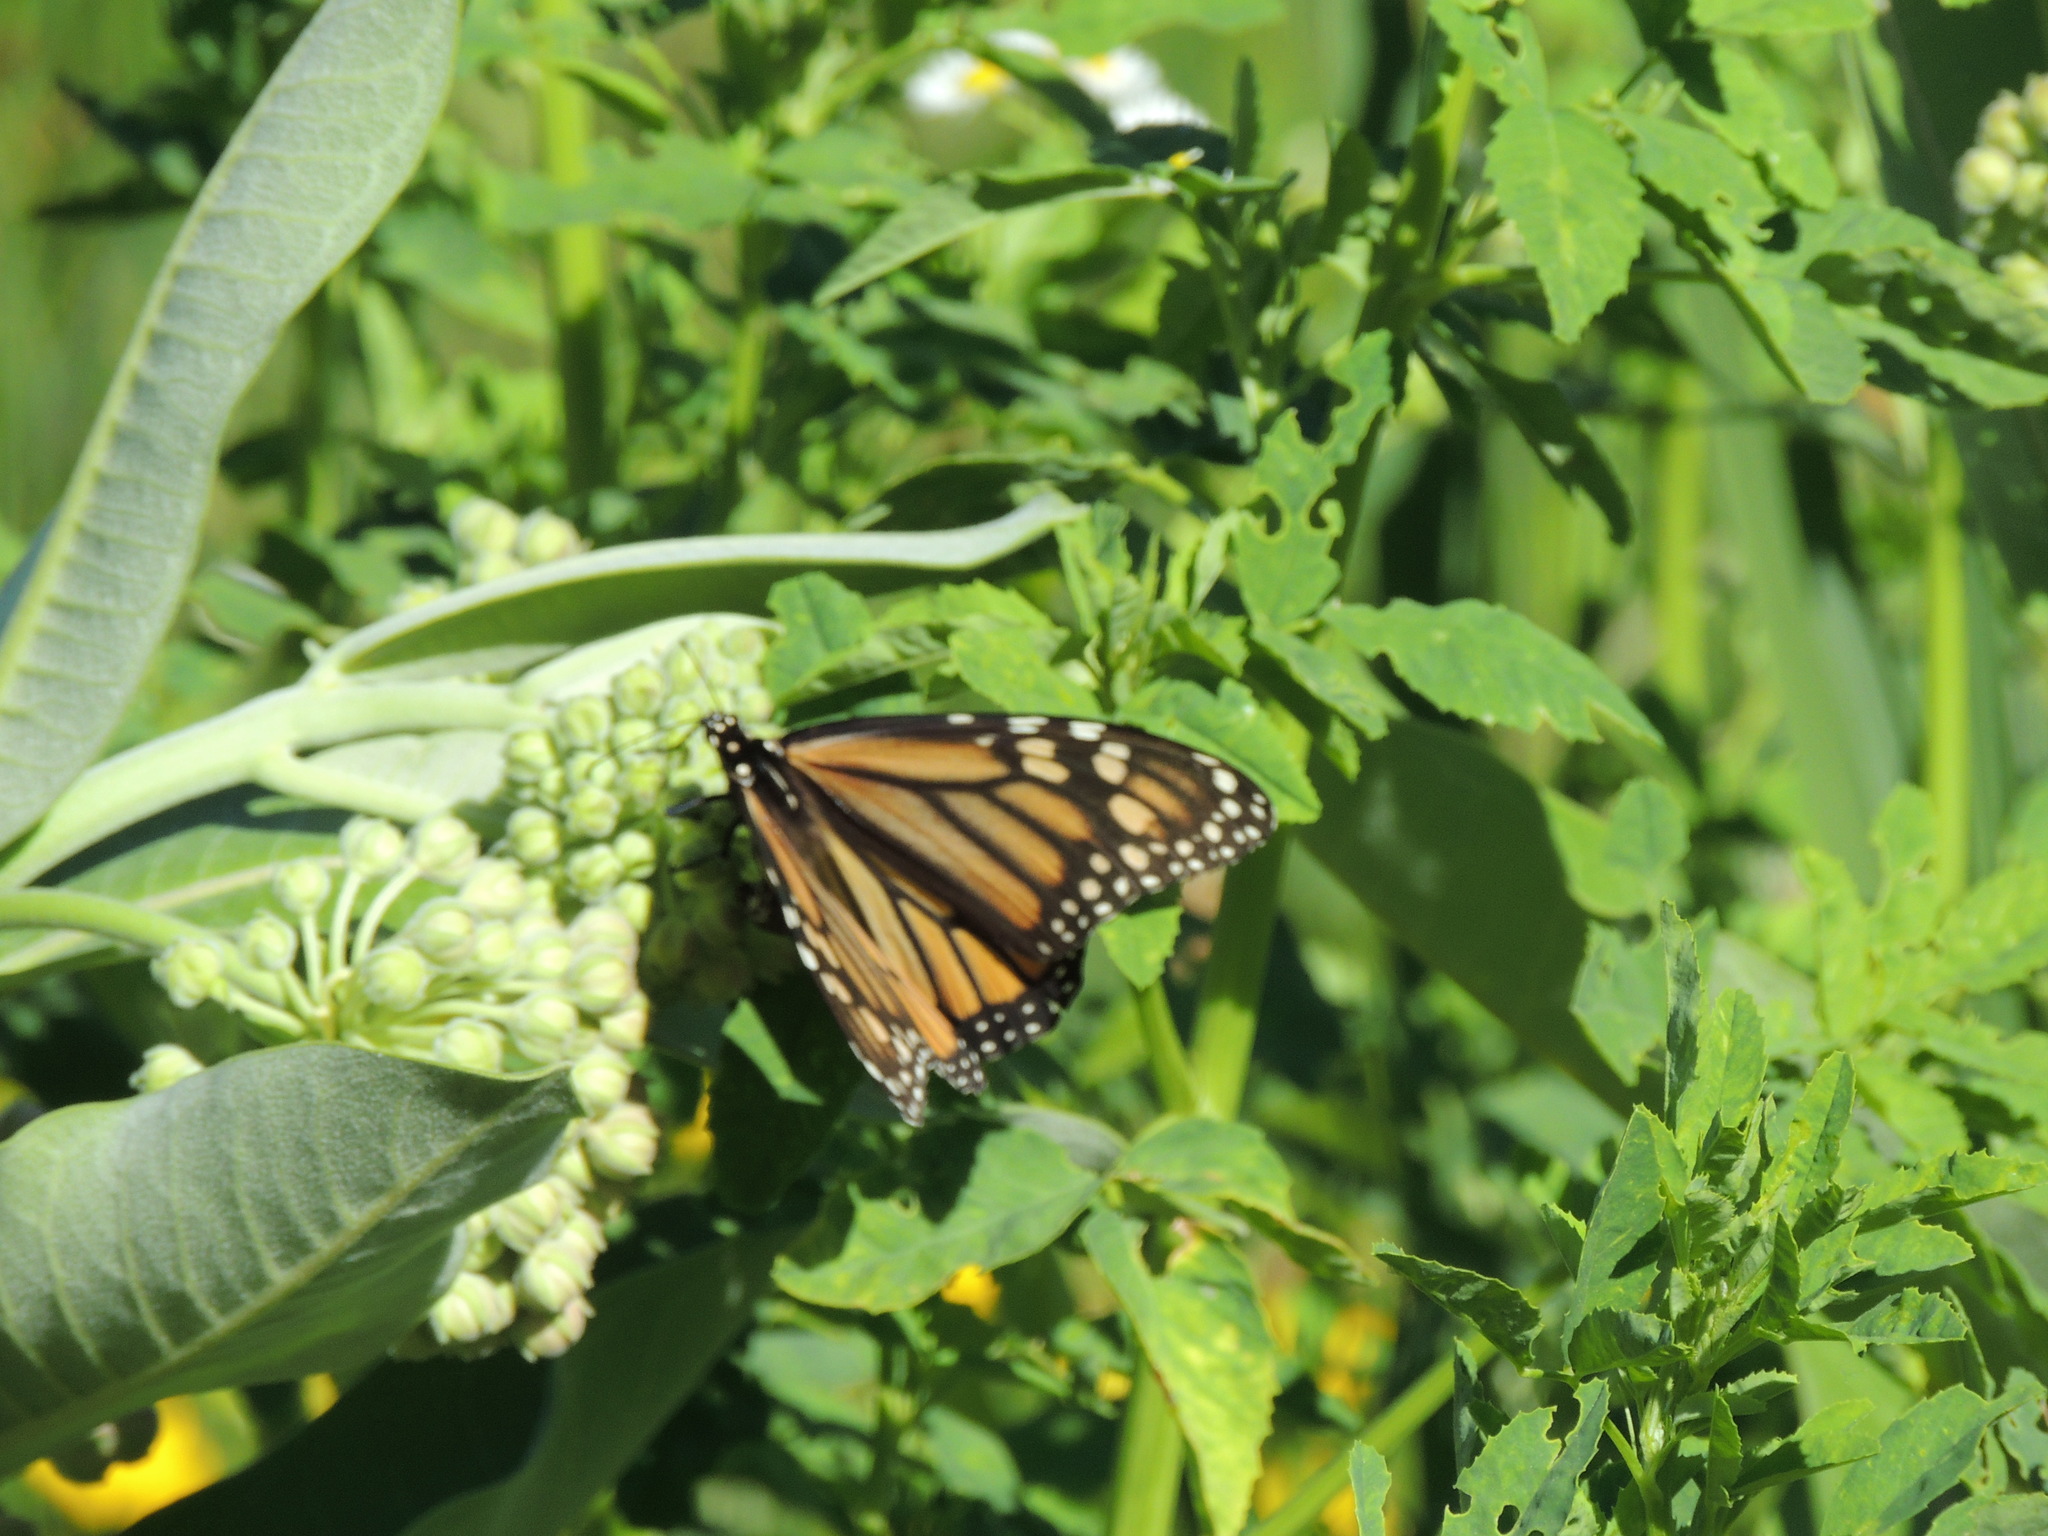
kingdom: Animalia
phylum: Arthropoda
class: Insecta
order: Lepidoptera
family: Nymphalidae
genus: Danaus
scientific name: Danaus plexippus
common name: Monarch
